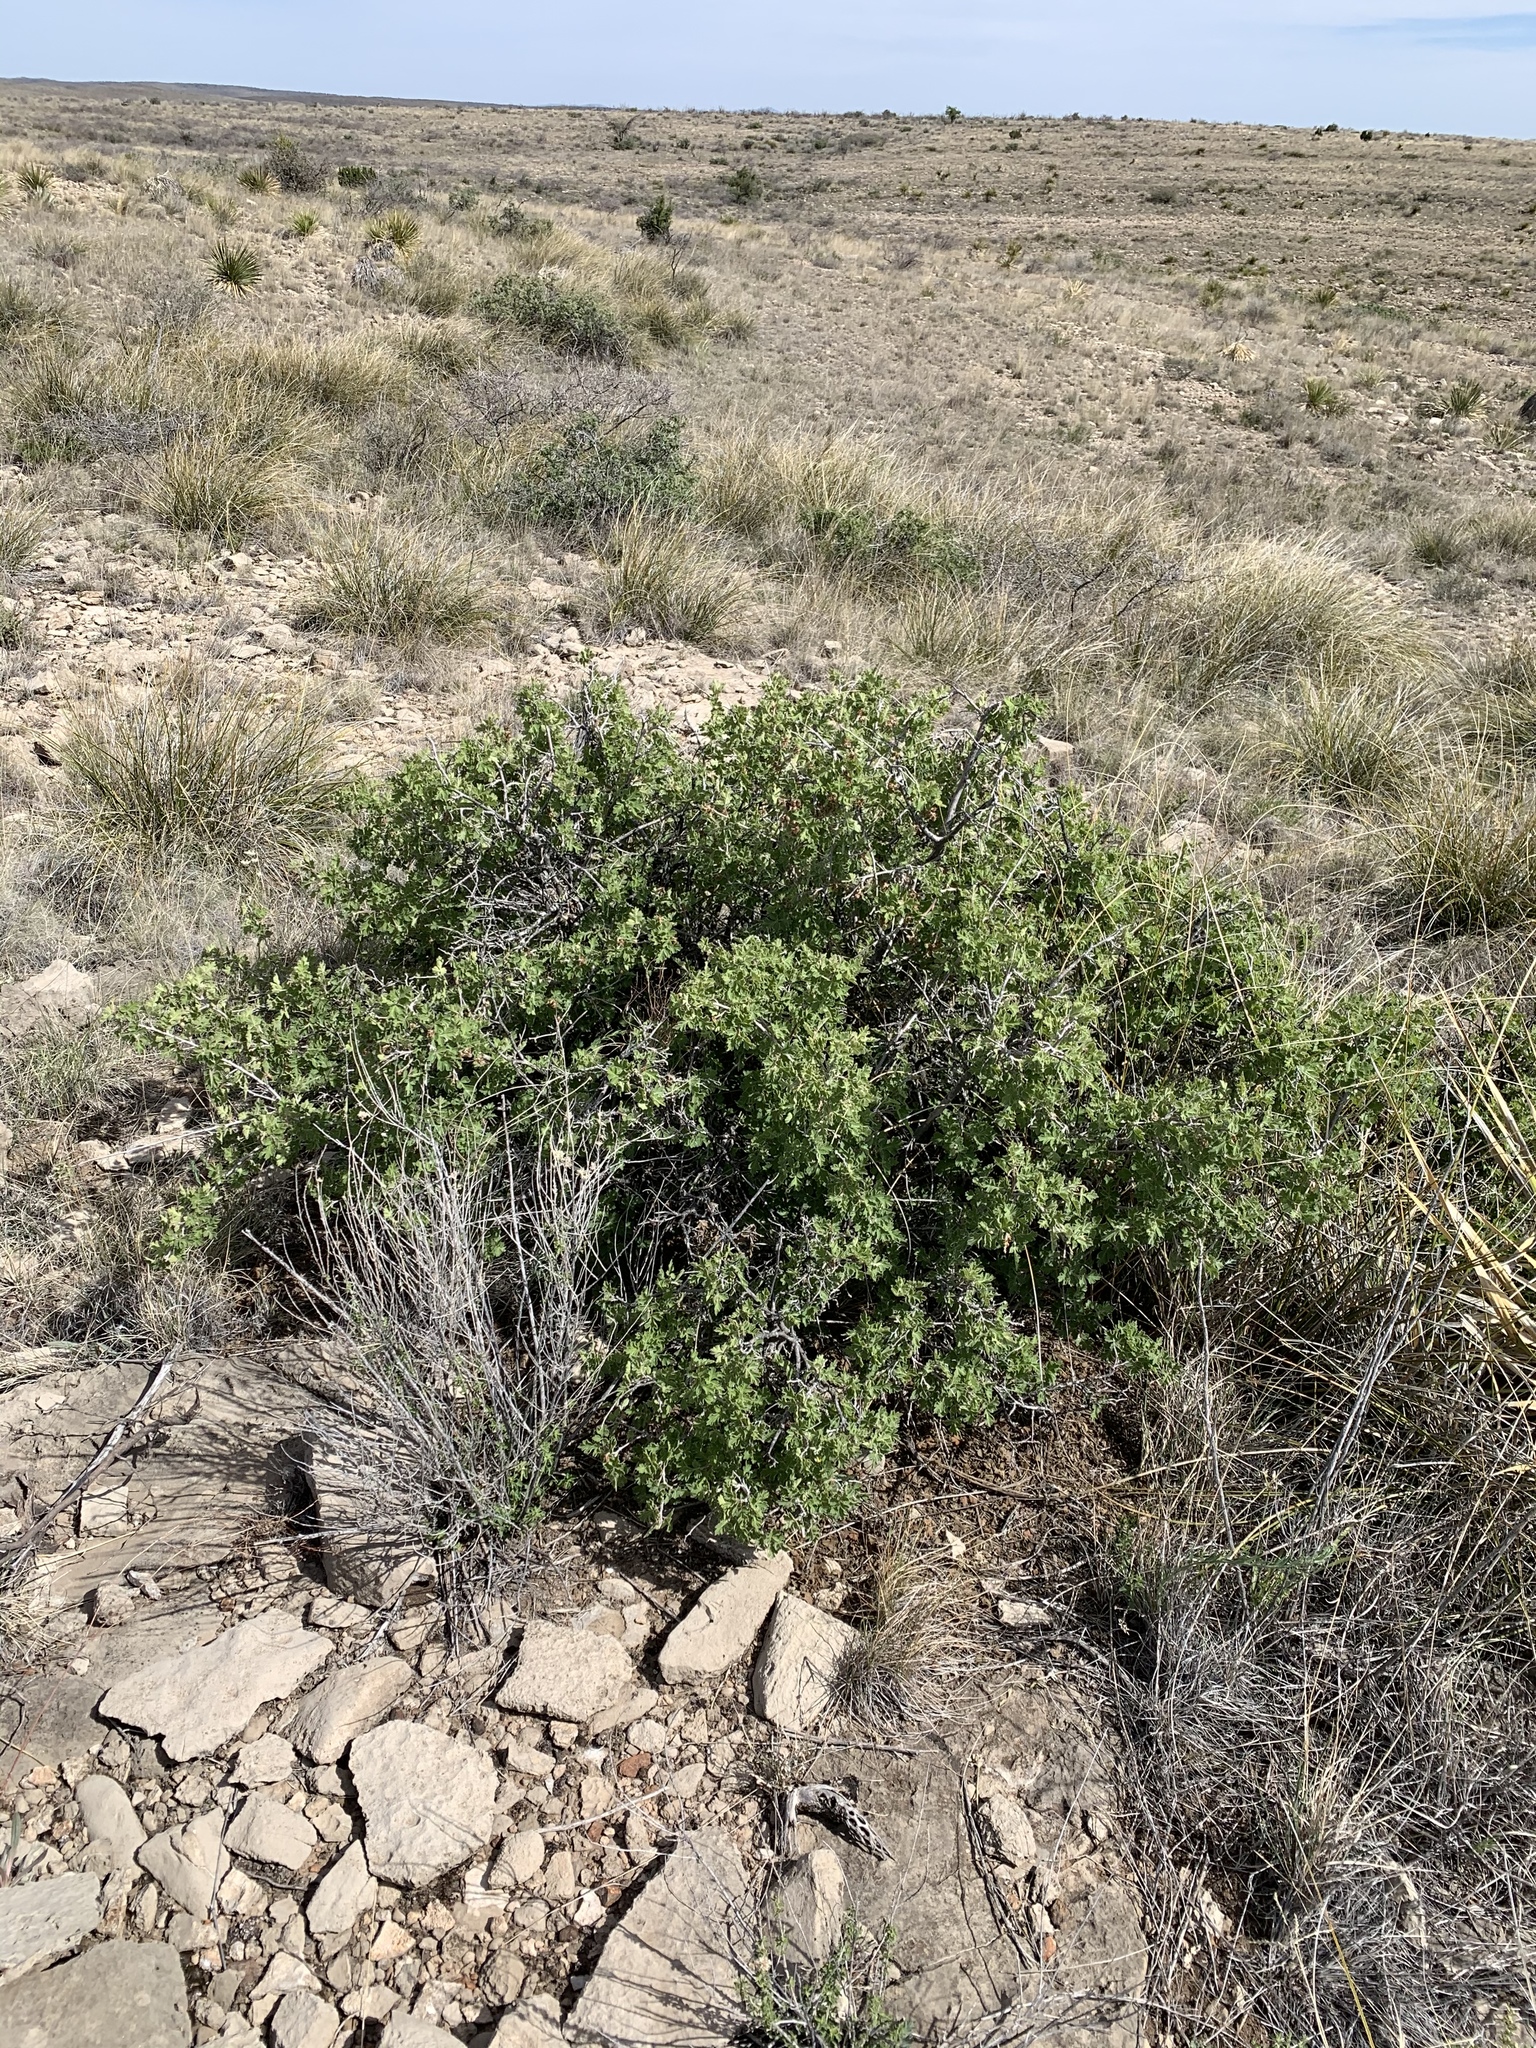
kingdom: Plantae
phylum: Tracheophyta
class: Magnoliopsida
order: Sapindales
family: Anacardiaceae
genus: Rhus
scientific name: Rhus trilobata
